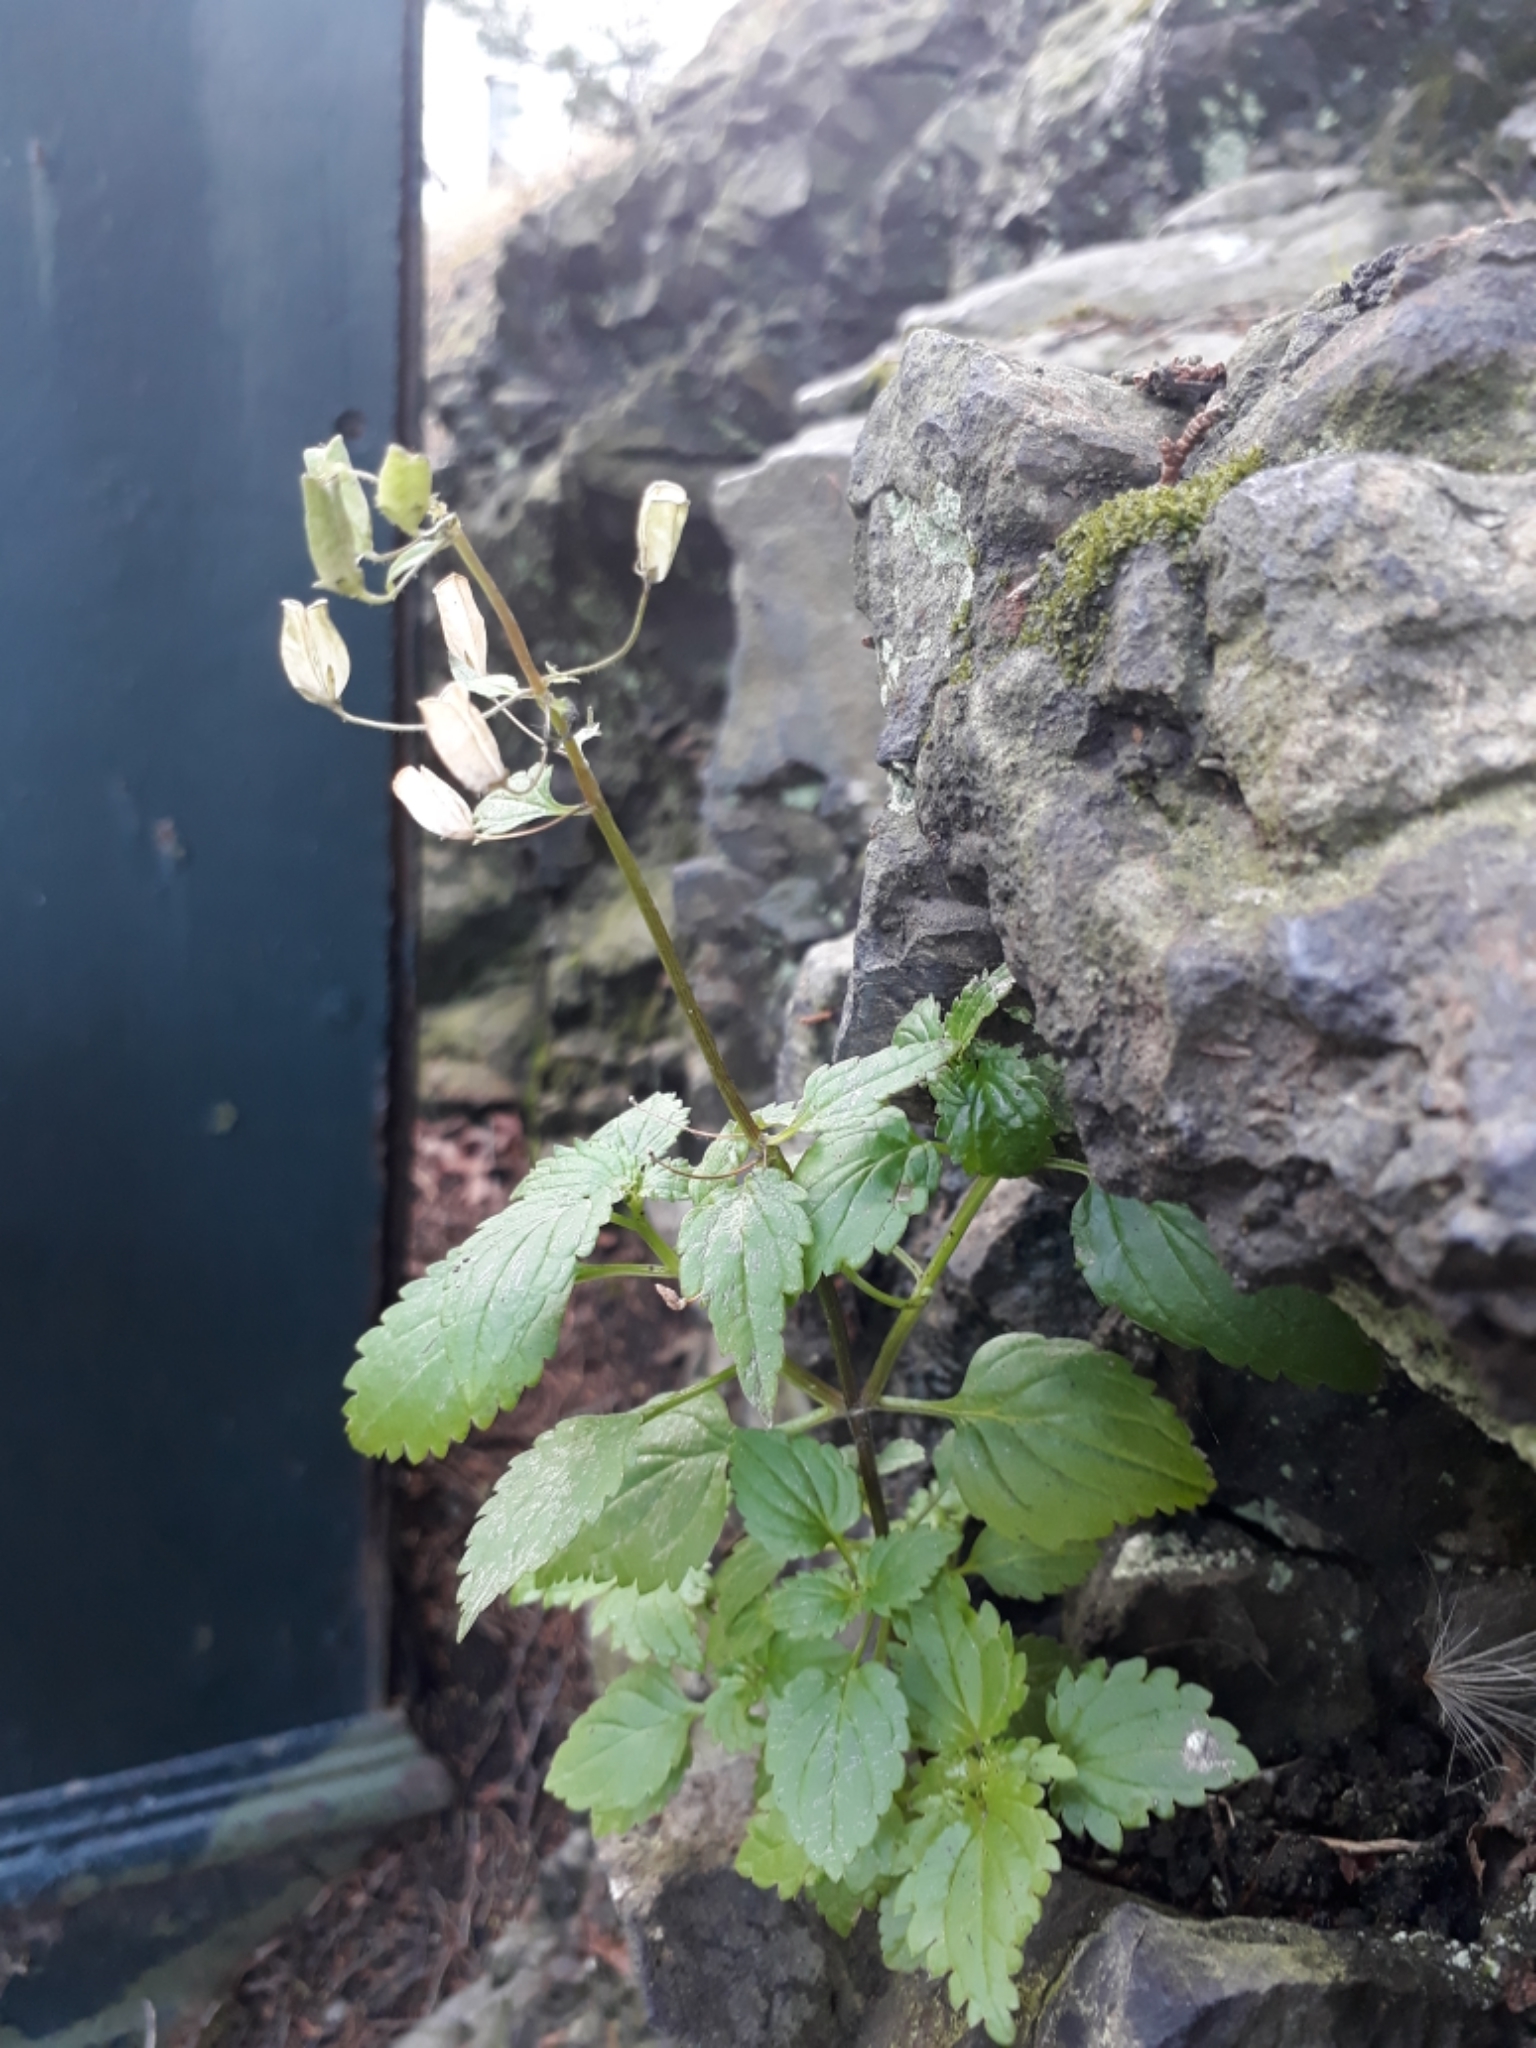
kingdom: Plantae
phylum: Tracheophyta
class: Magnoliopsida
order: Lamiales
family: Scrophulariaceae
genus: Nemesia
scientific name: Nemesia floribunda
